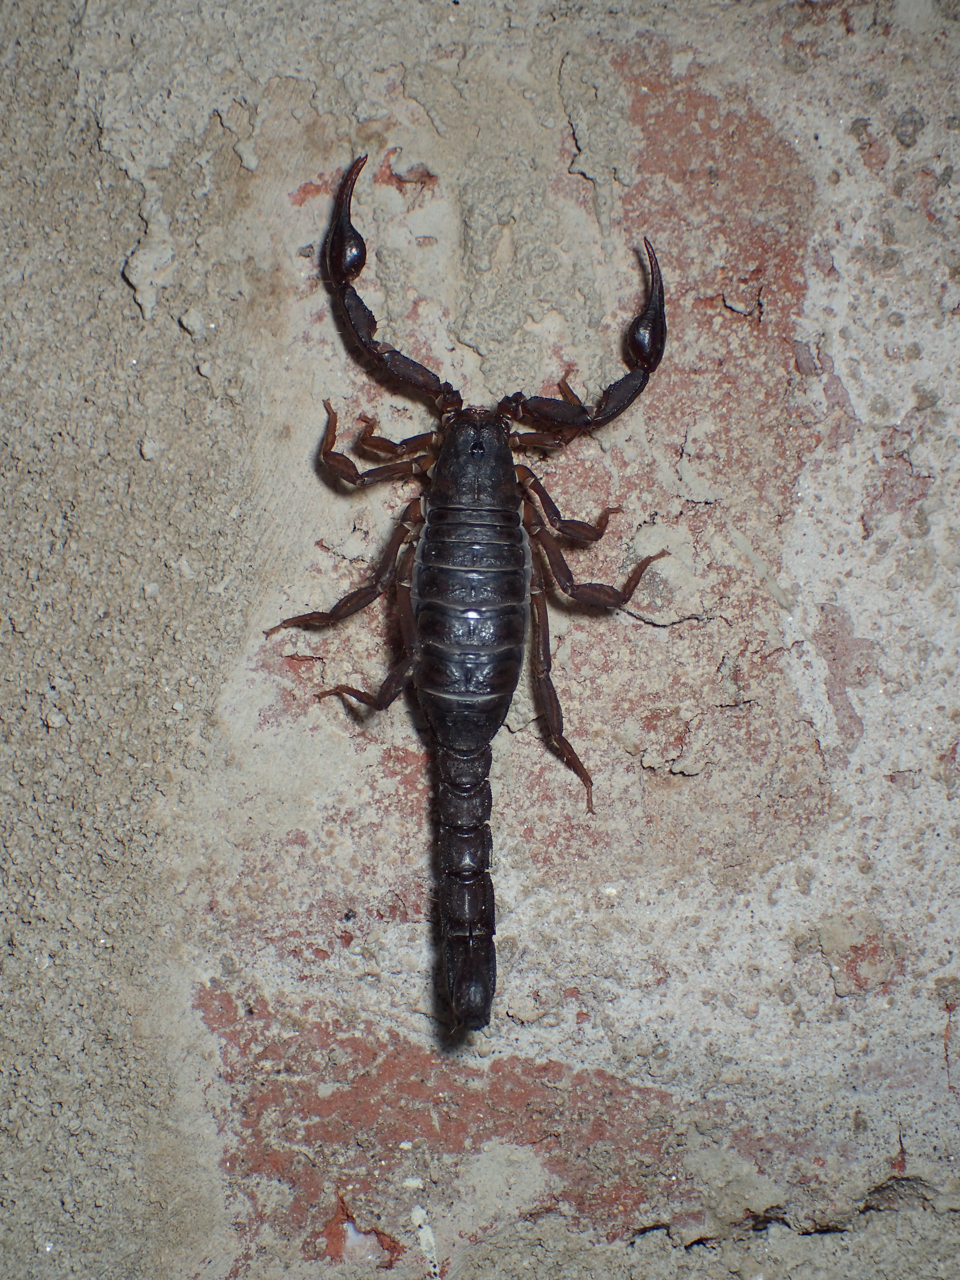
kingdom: Animalia
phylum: Arthropoda
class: Arachnida
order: Scorpiones
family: Vaejovidae
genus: Vaejovis
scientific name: Vaejovis carolinianus
